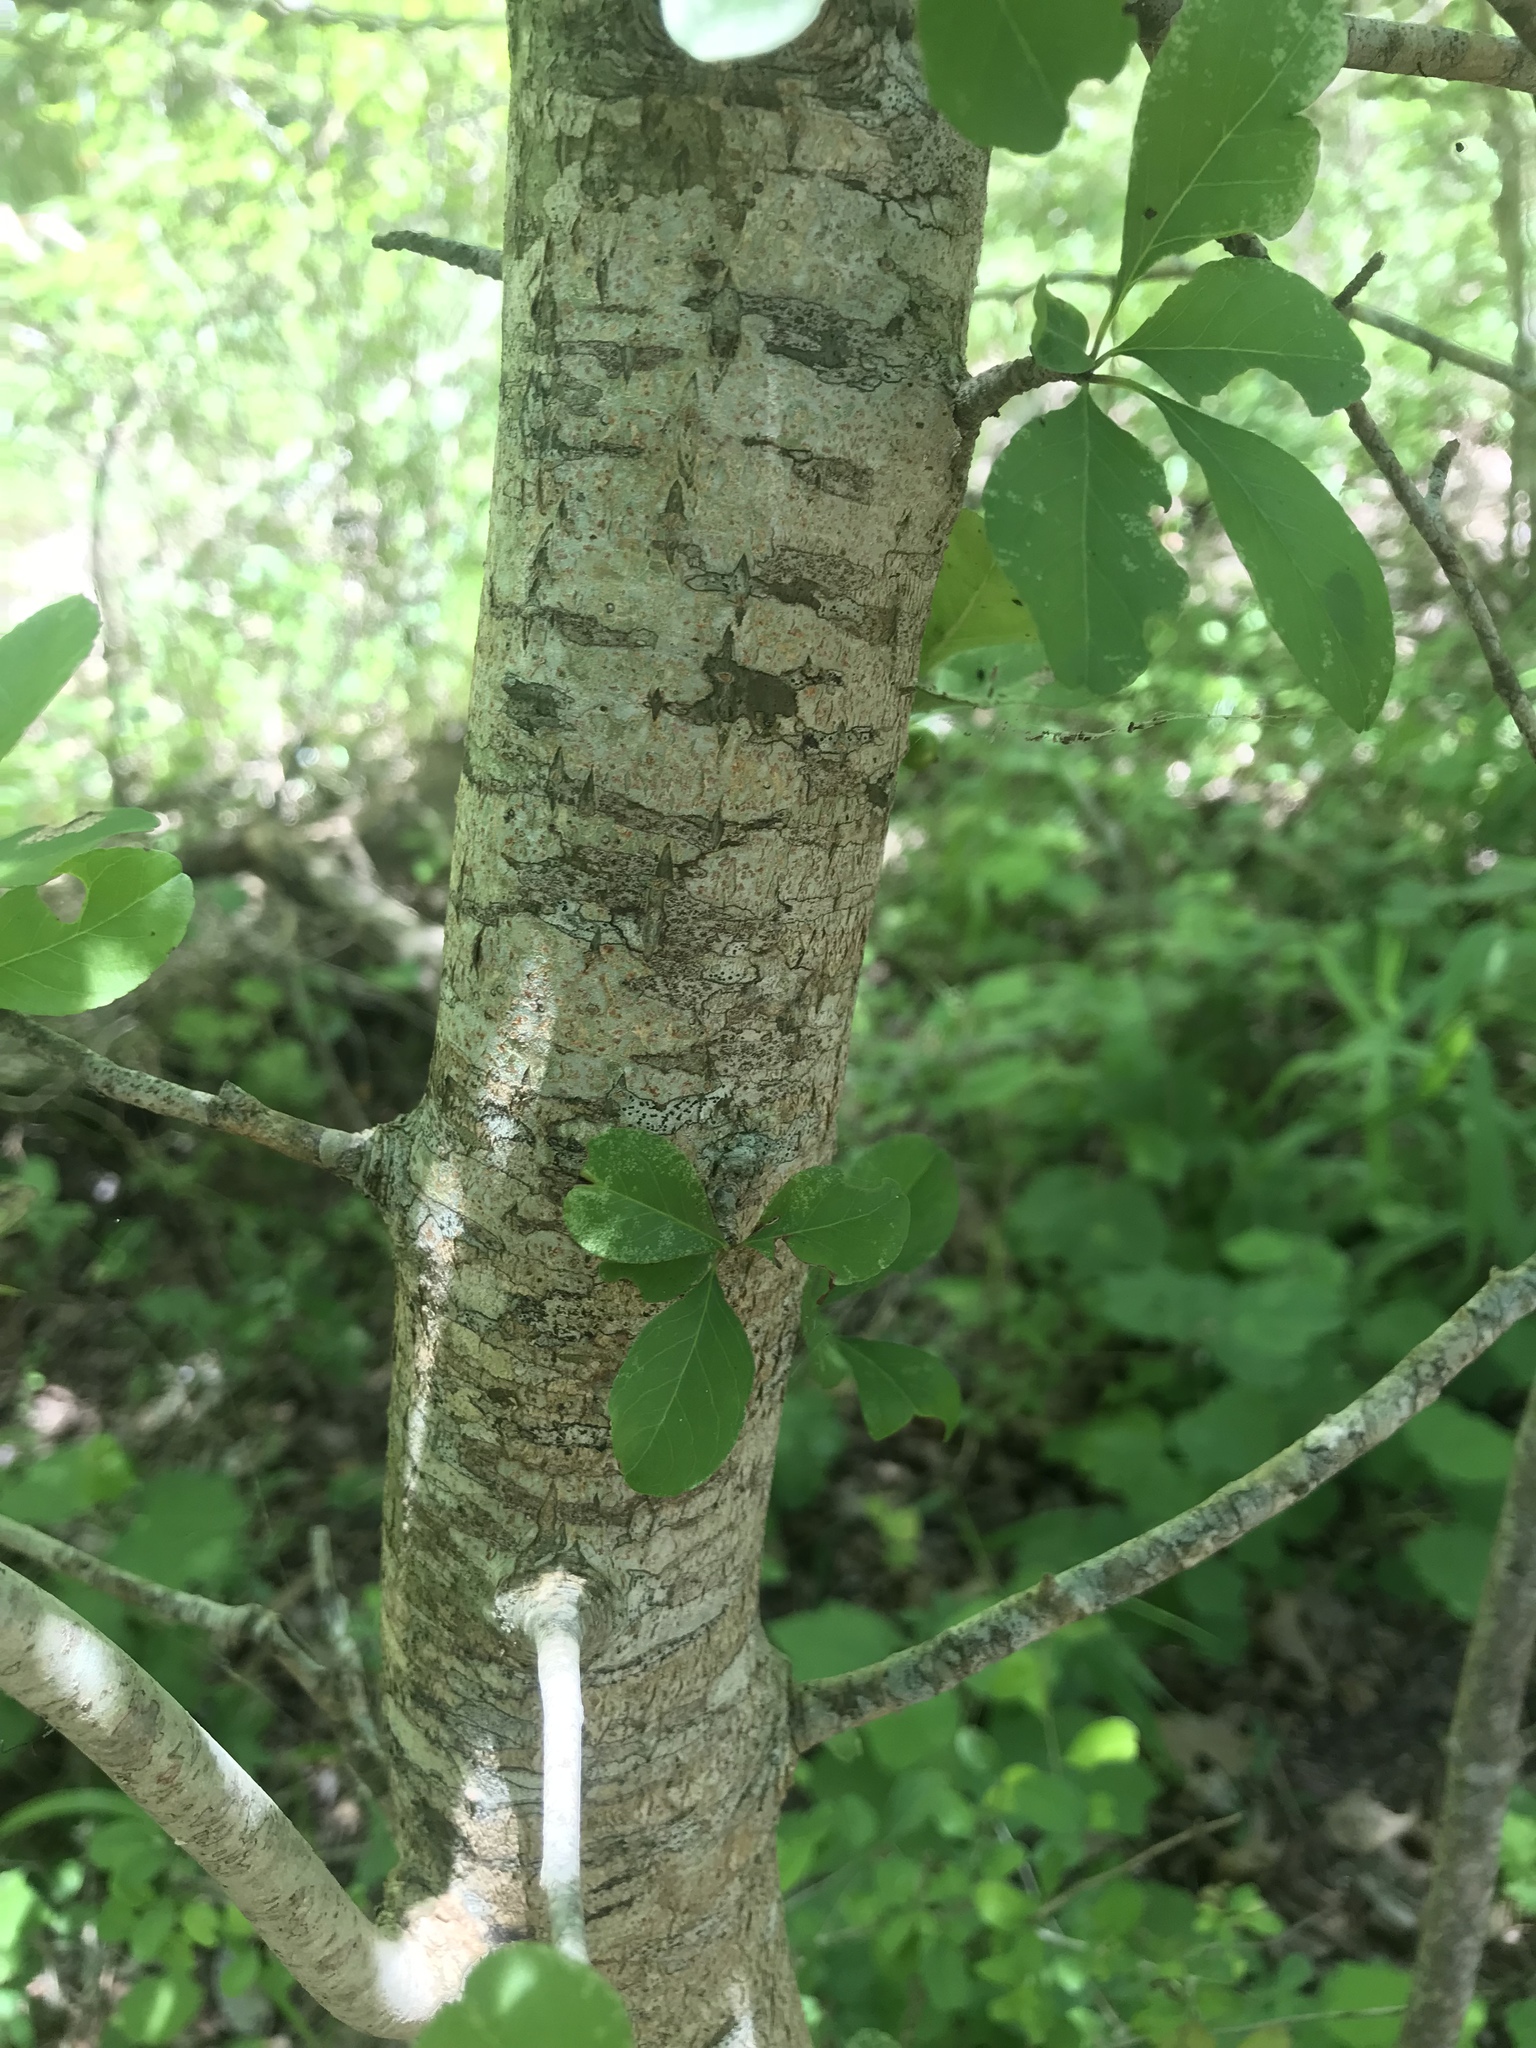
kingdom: Plantae
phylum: Tracheophyta
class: Magnoliopsida
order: Aquifoliales
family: Aquifoliaceae
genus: Ilex
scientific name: Ilex decidua
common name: Possum-haw
